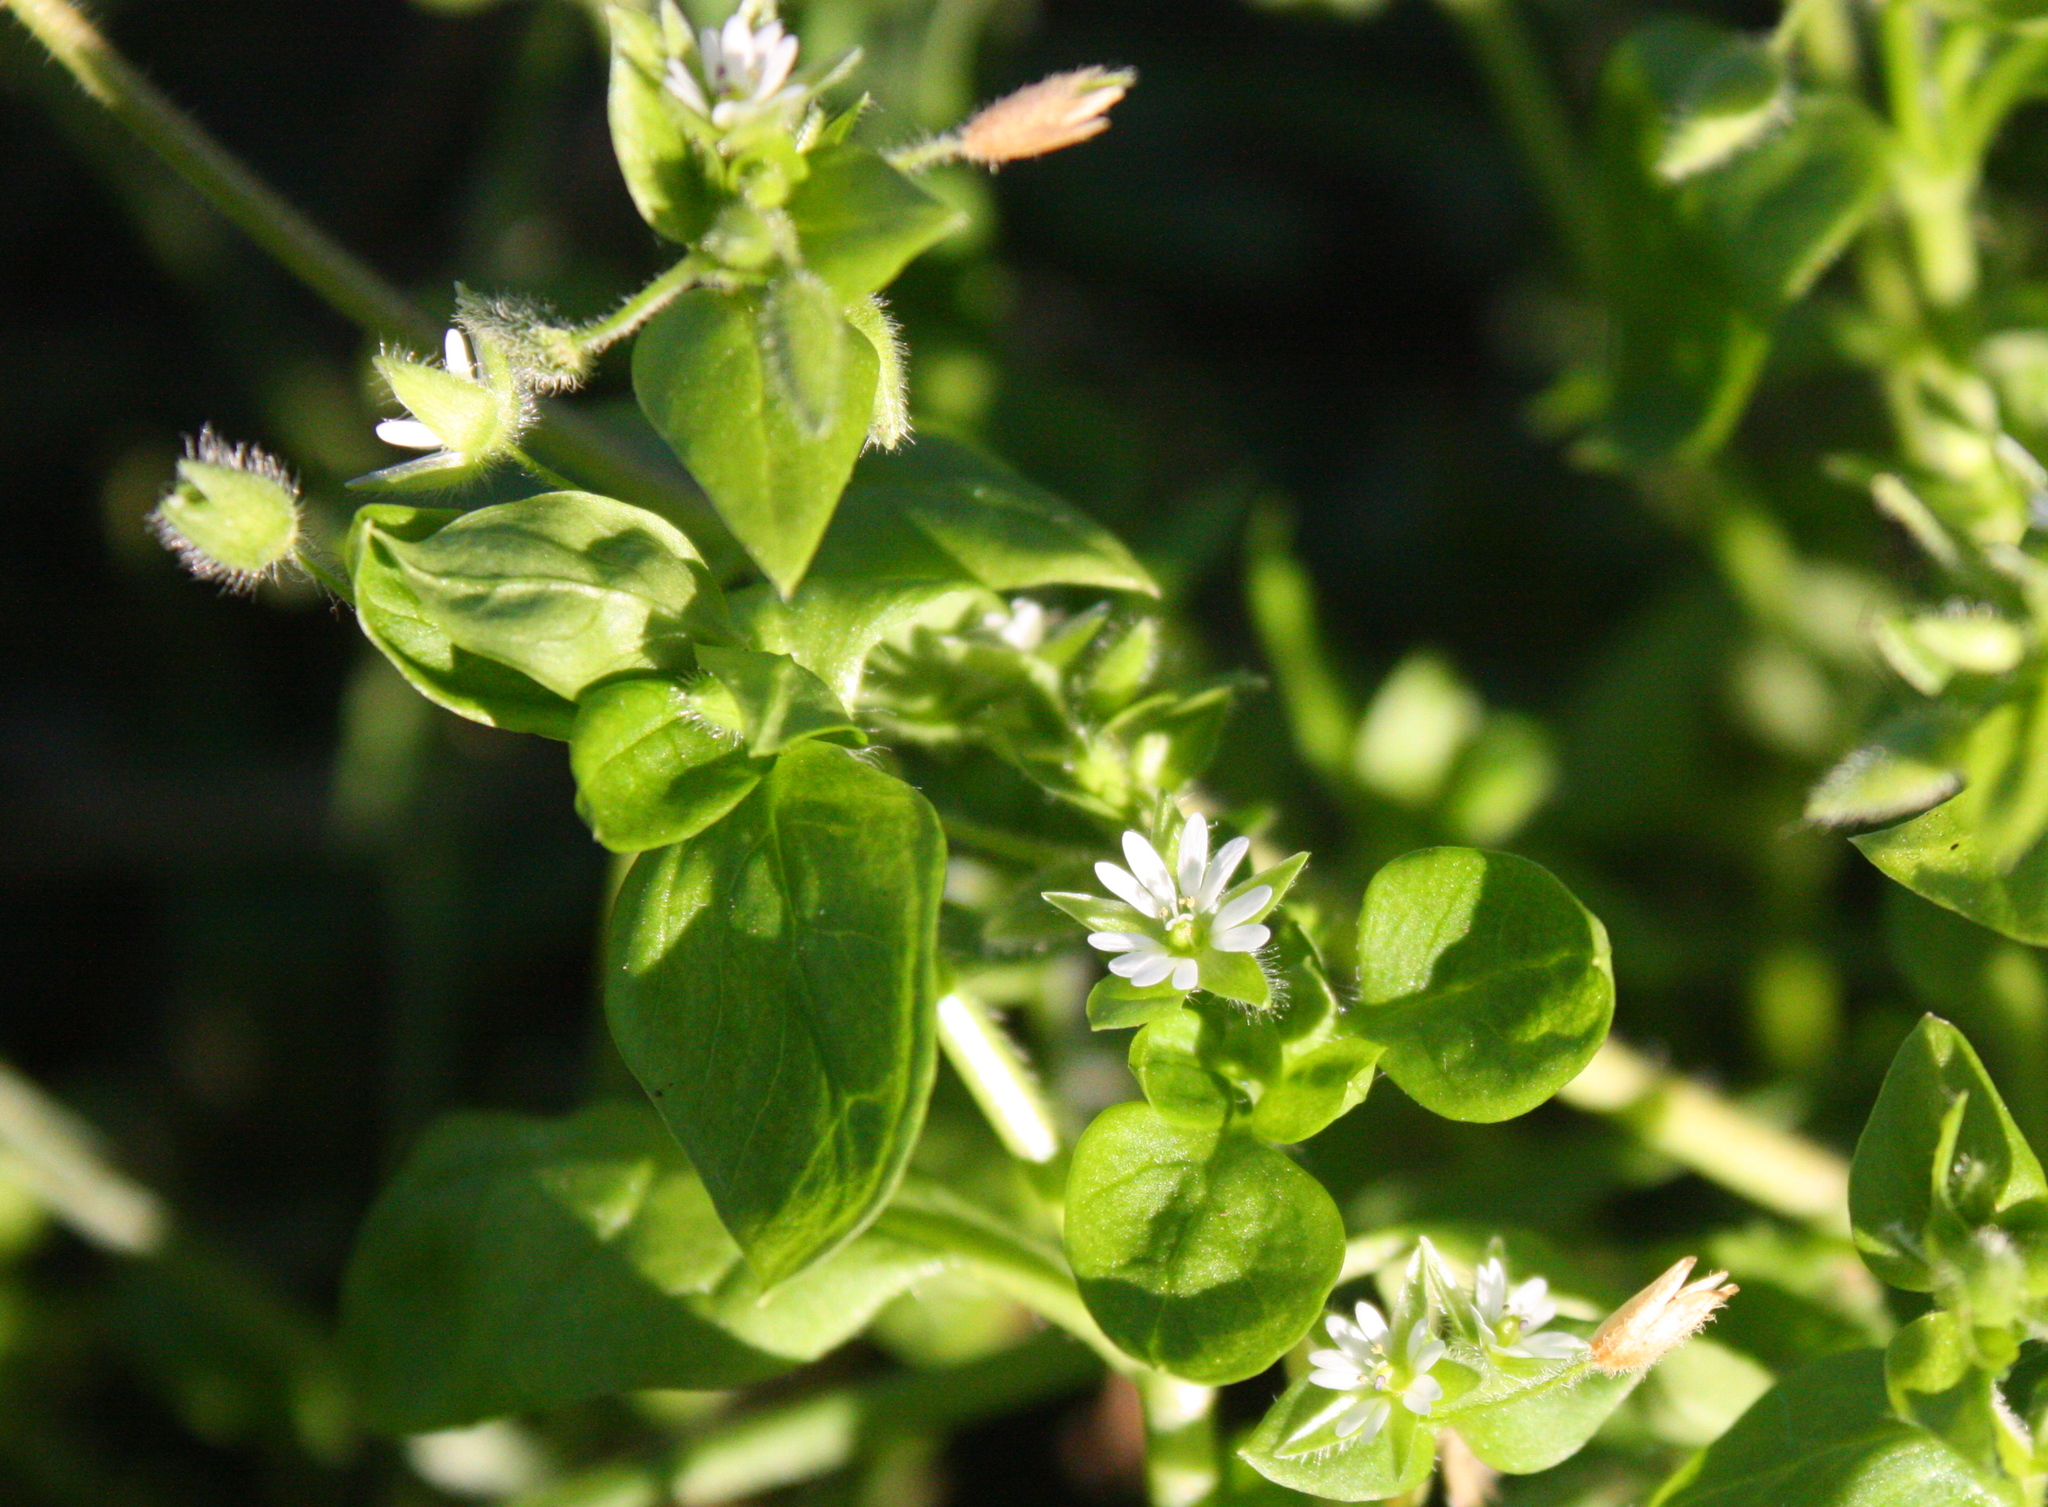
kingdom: Plantae
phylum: Tracheophyta
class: Magnoliopsida
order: Caryophyllales
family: Caryophyllaceae
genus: Stellaria
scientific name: Stellaria media
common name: Common chickweed
